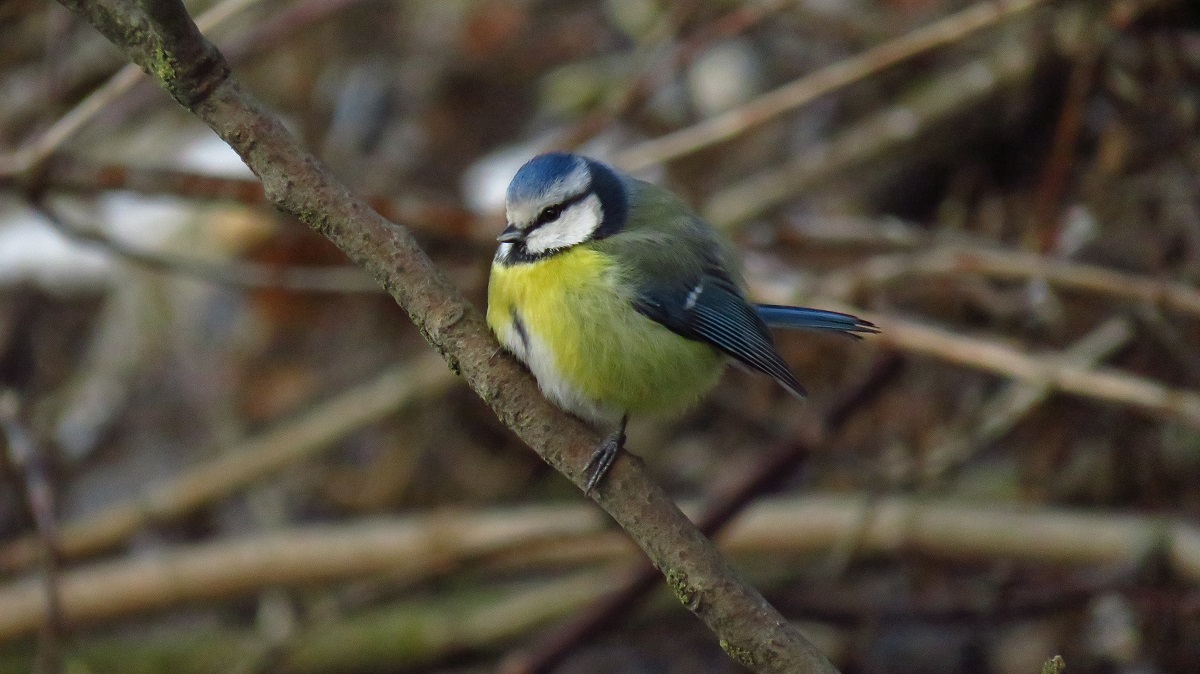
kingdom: Animalia
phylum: Chordata
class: Aves
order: Passeriformes
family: Paridae
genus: Cyanistes
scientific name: Cyanistes caeruleus
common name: Eurasian blue tit
